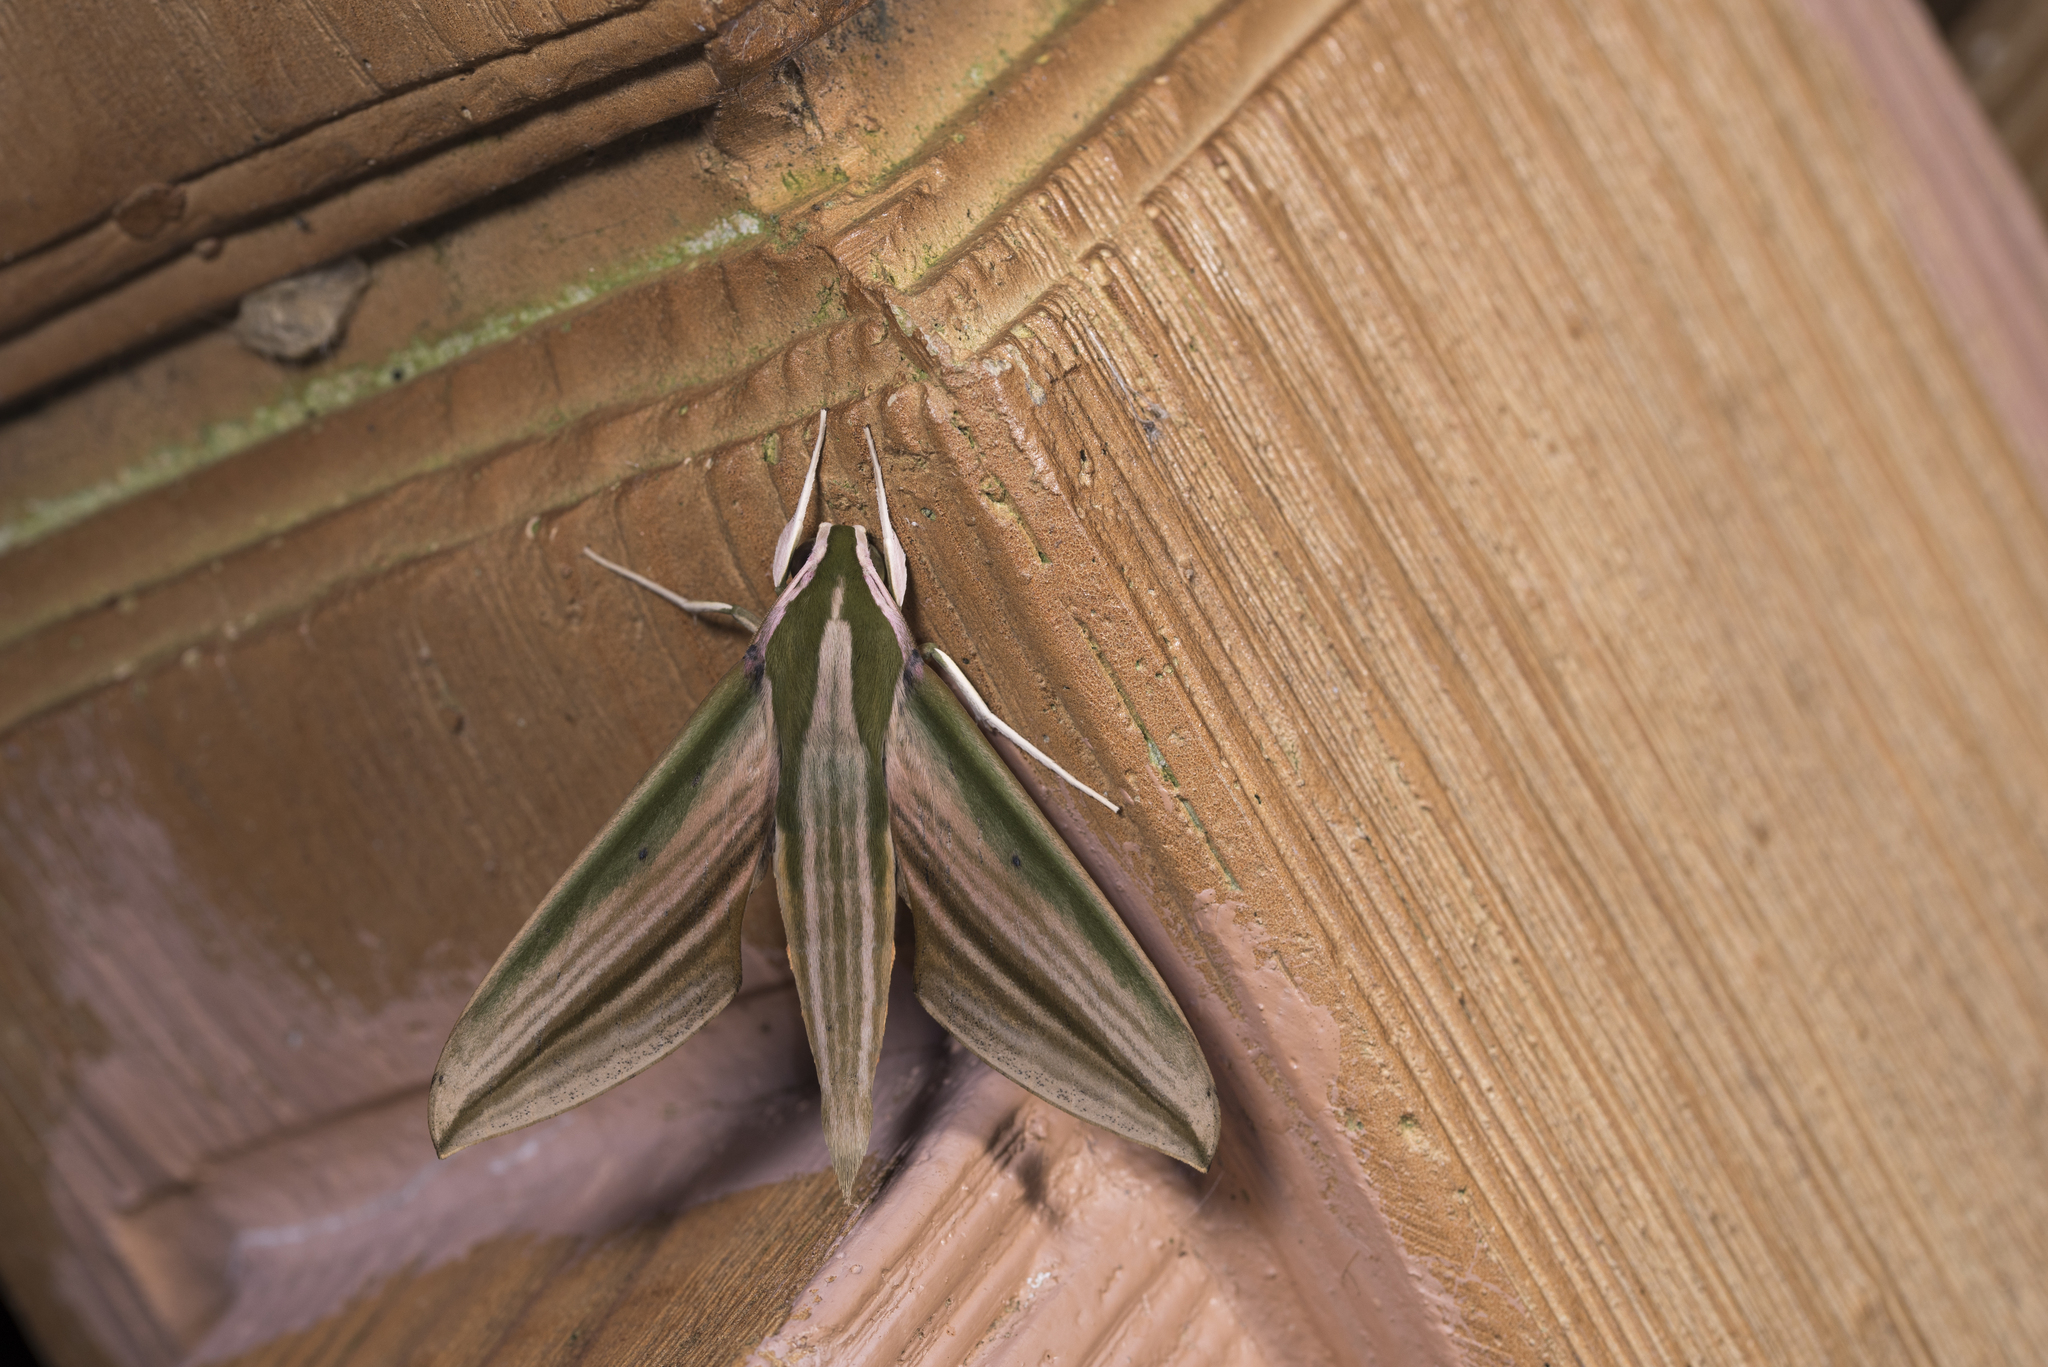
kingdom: Animalia
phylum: Arthropoda
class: Insecta
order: Lepidoptera
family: Sphingidae
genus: Cechetra
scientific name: Cechetra lineosa
